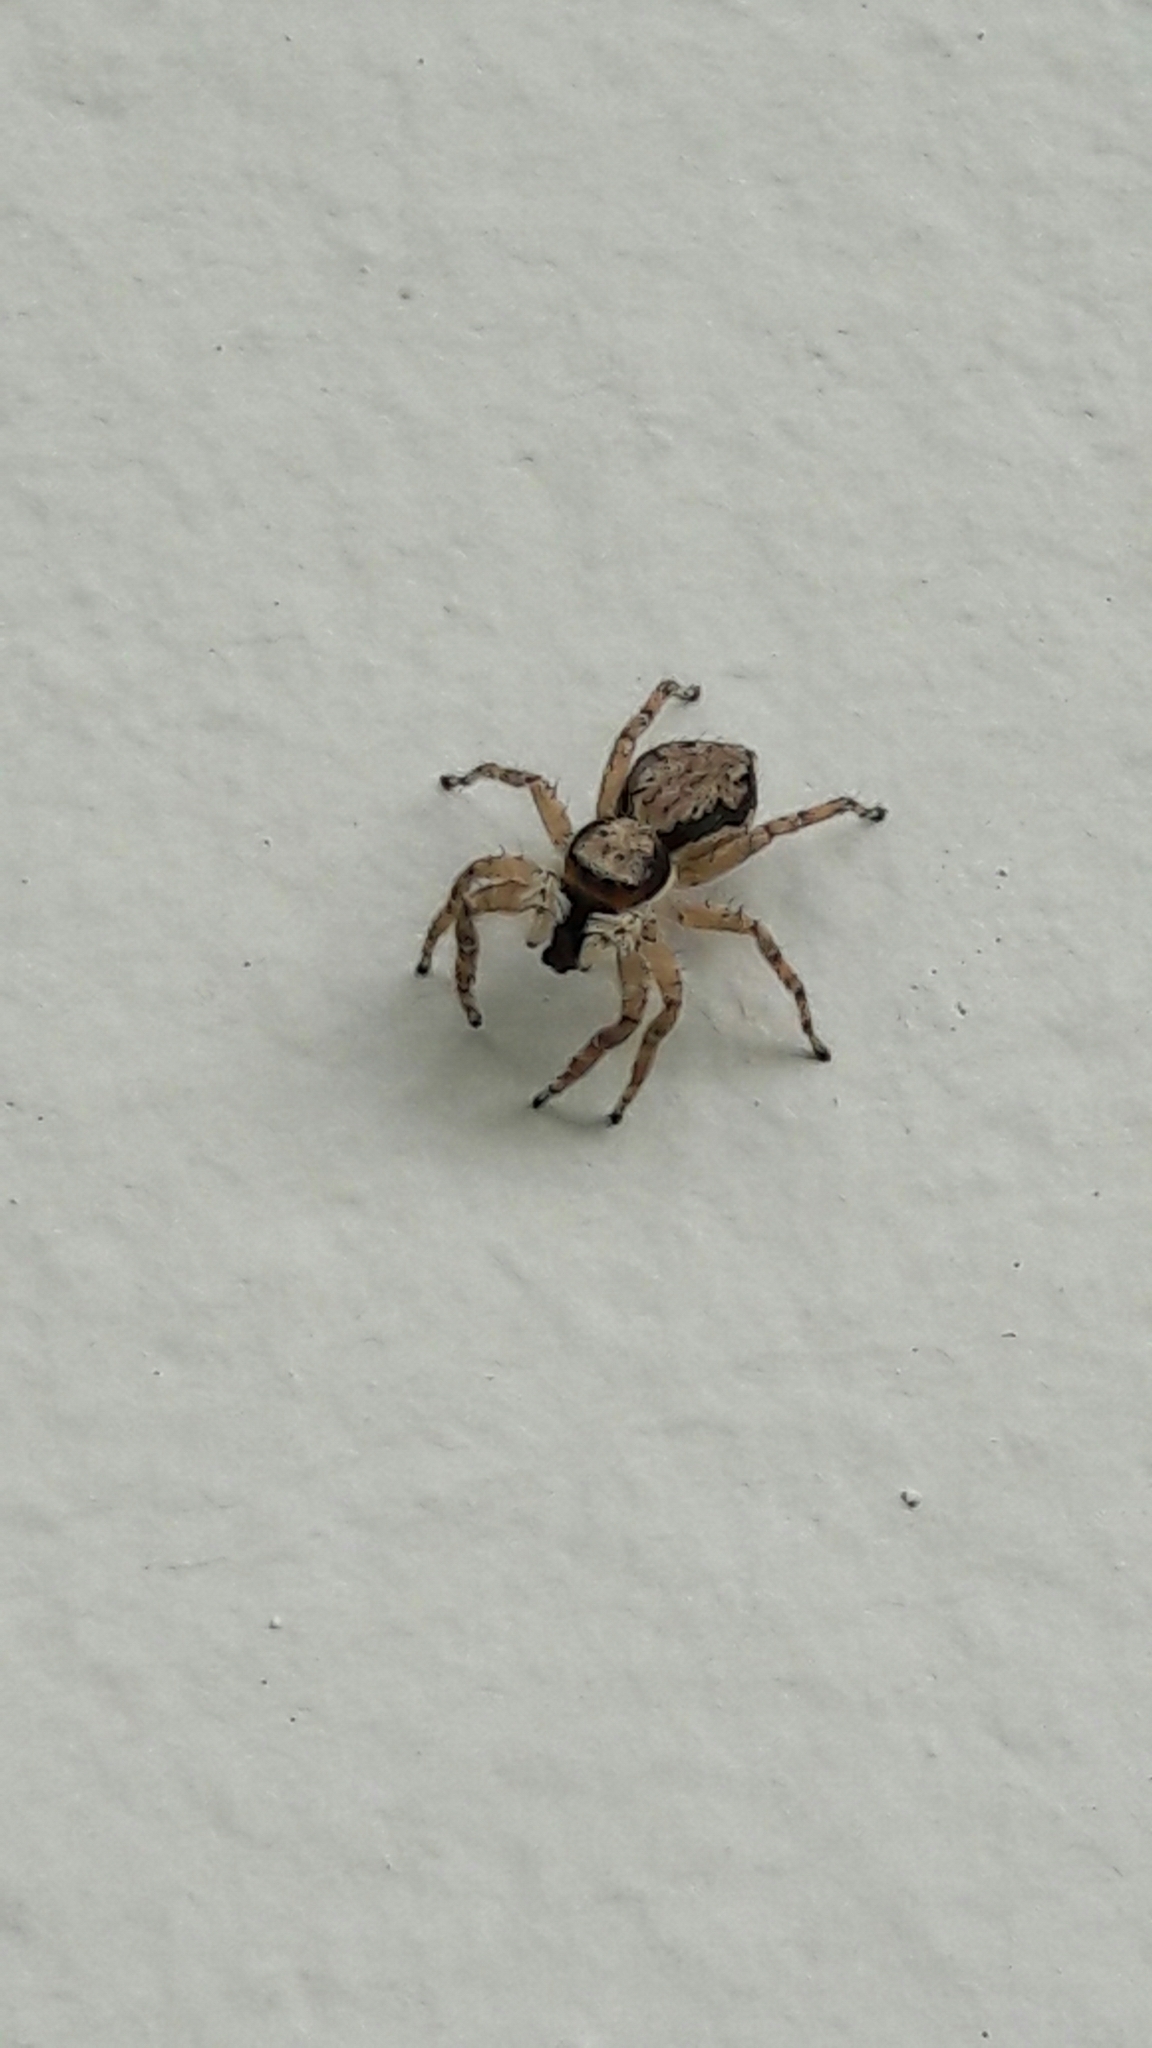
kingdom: Animalia
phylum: Arthropoda
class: Arachnida
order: Araneae
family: Salticidae
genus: Menemerus
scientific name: Menemerus bivittatus
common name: Gray wall jumper
